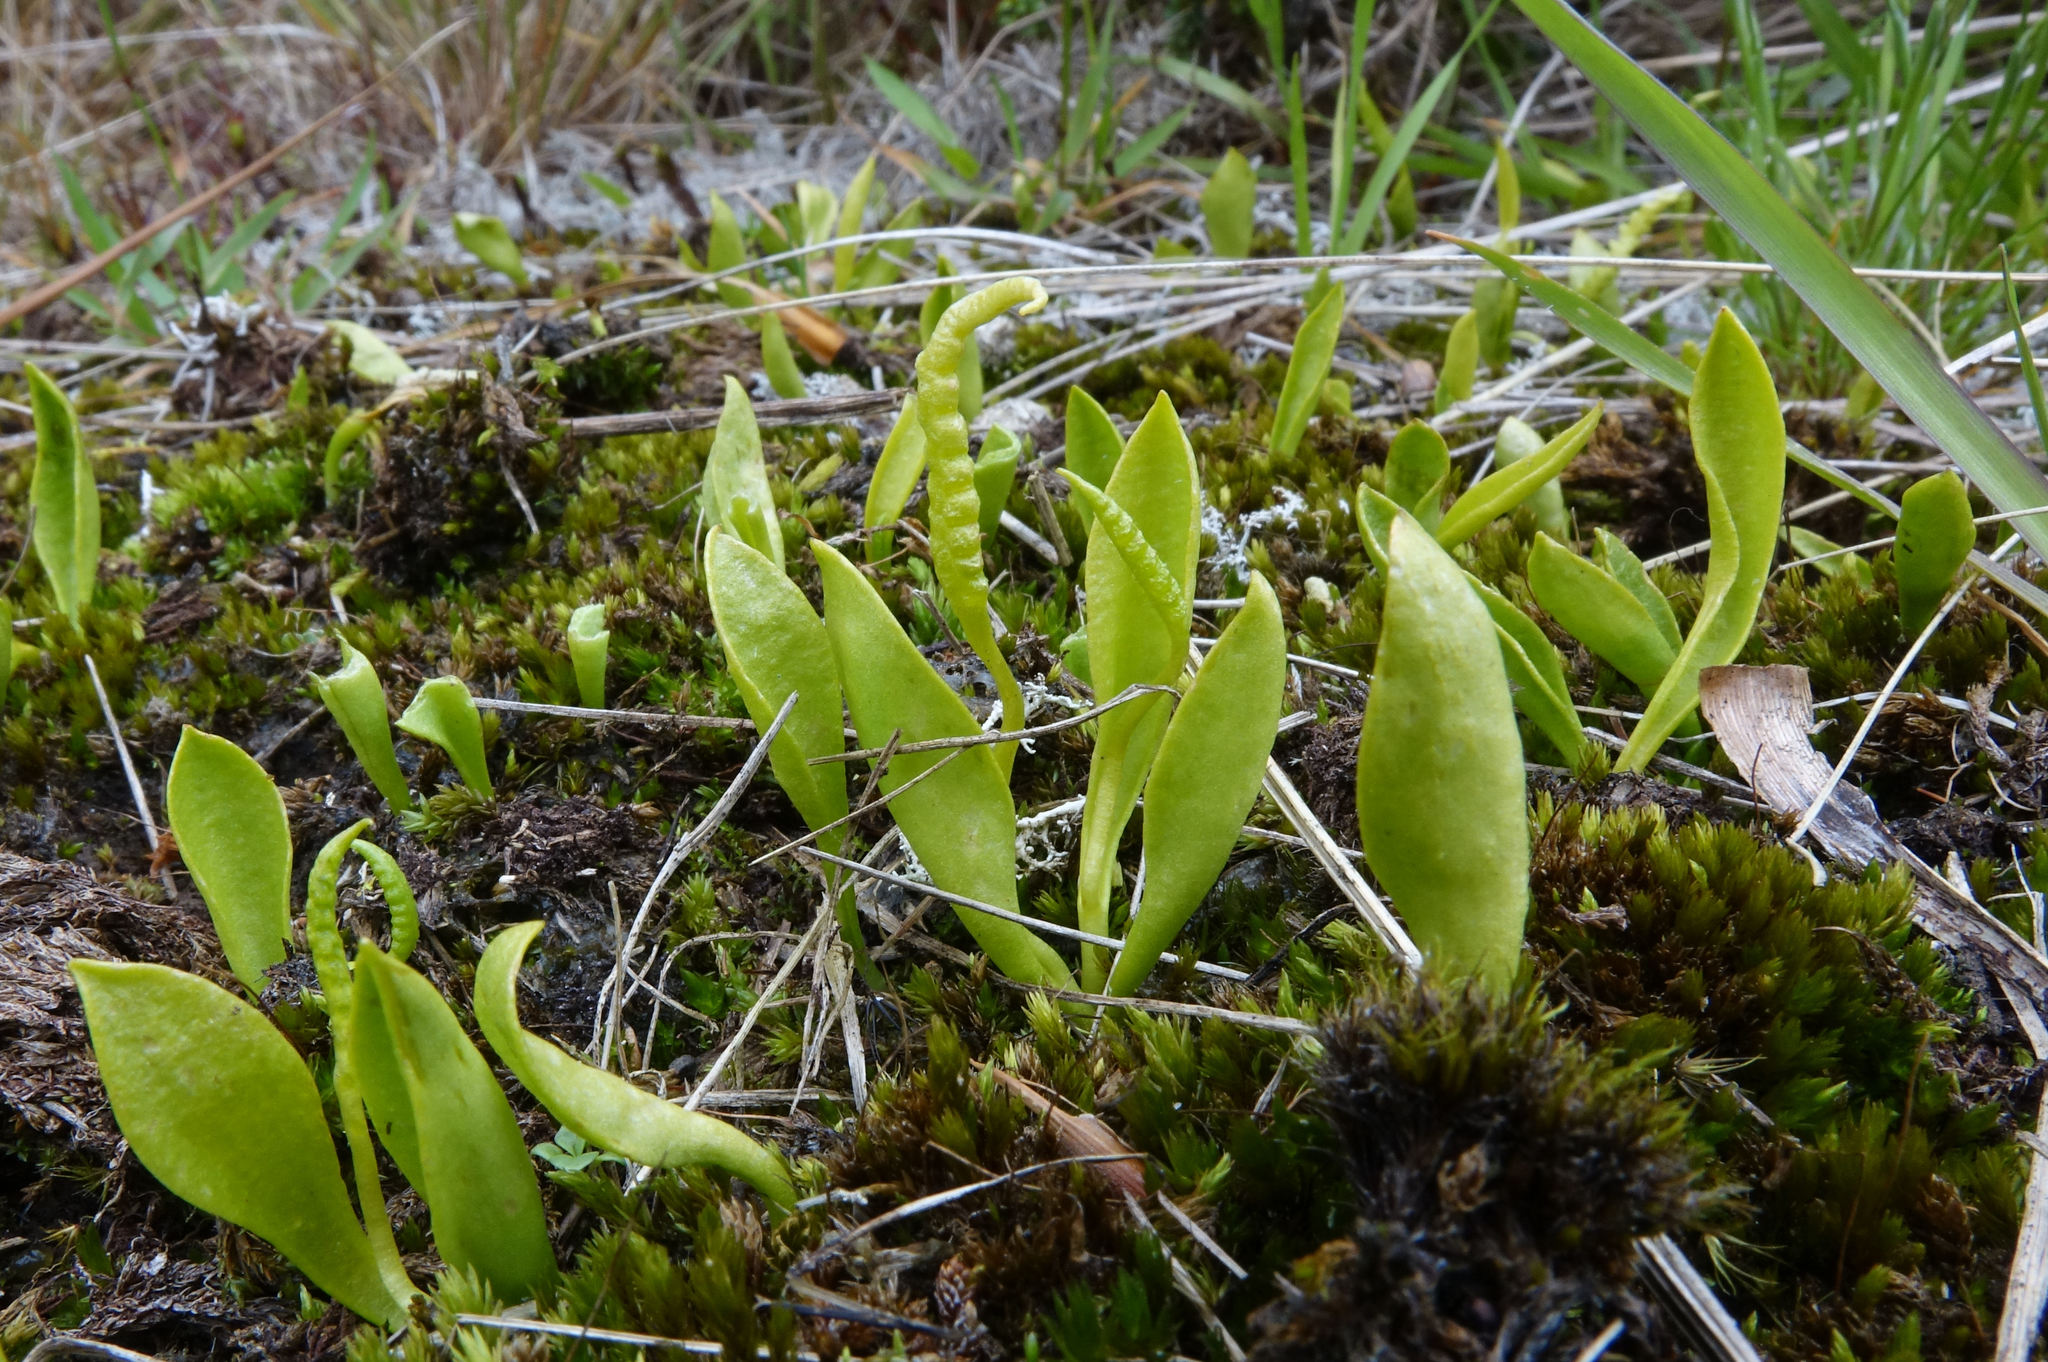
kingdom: Plantae
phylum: Tracheophyta
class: Polypodiopsida
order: Ophioglossales
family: Ophioglossaceae
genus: Ophioglossum
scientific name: Ophioglossum coriaceum
